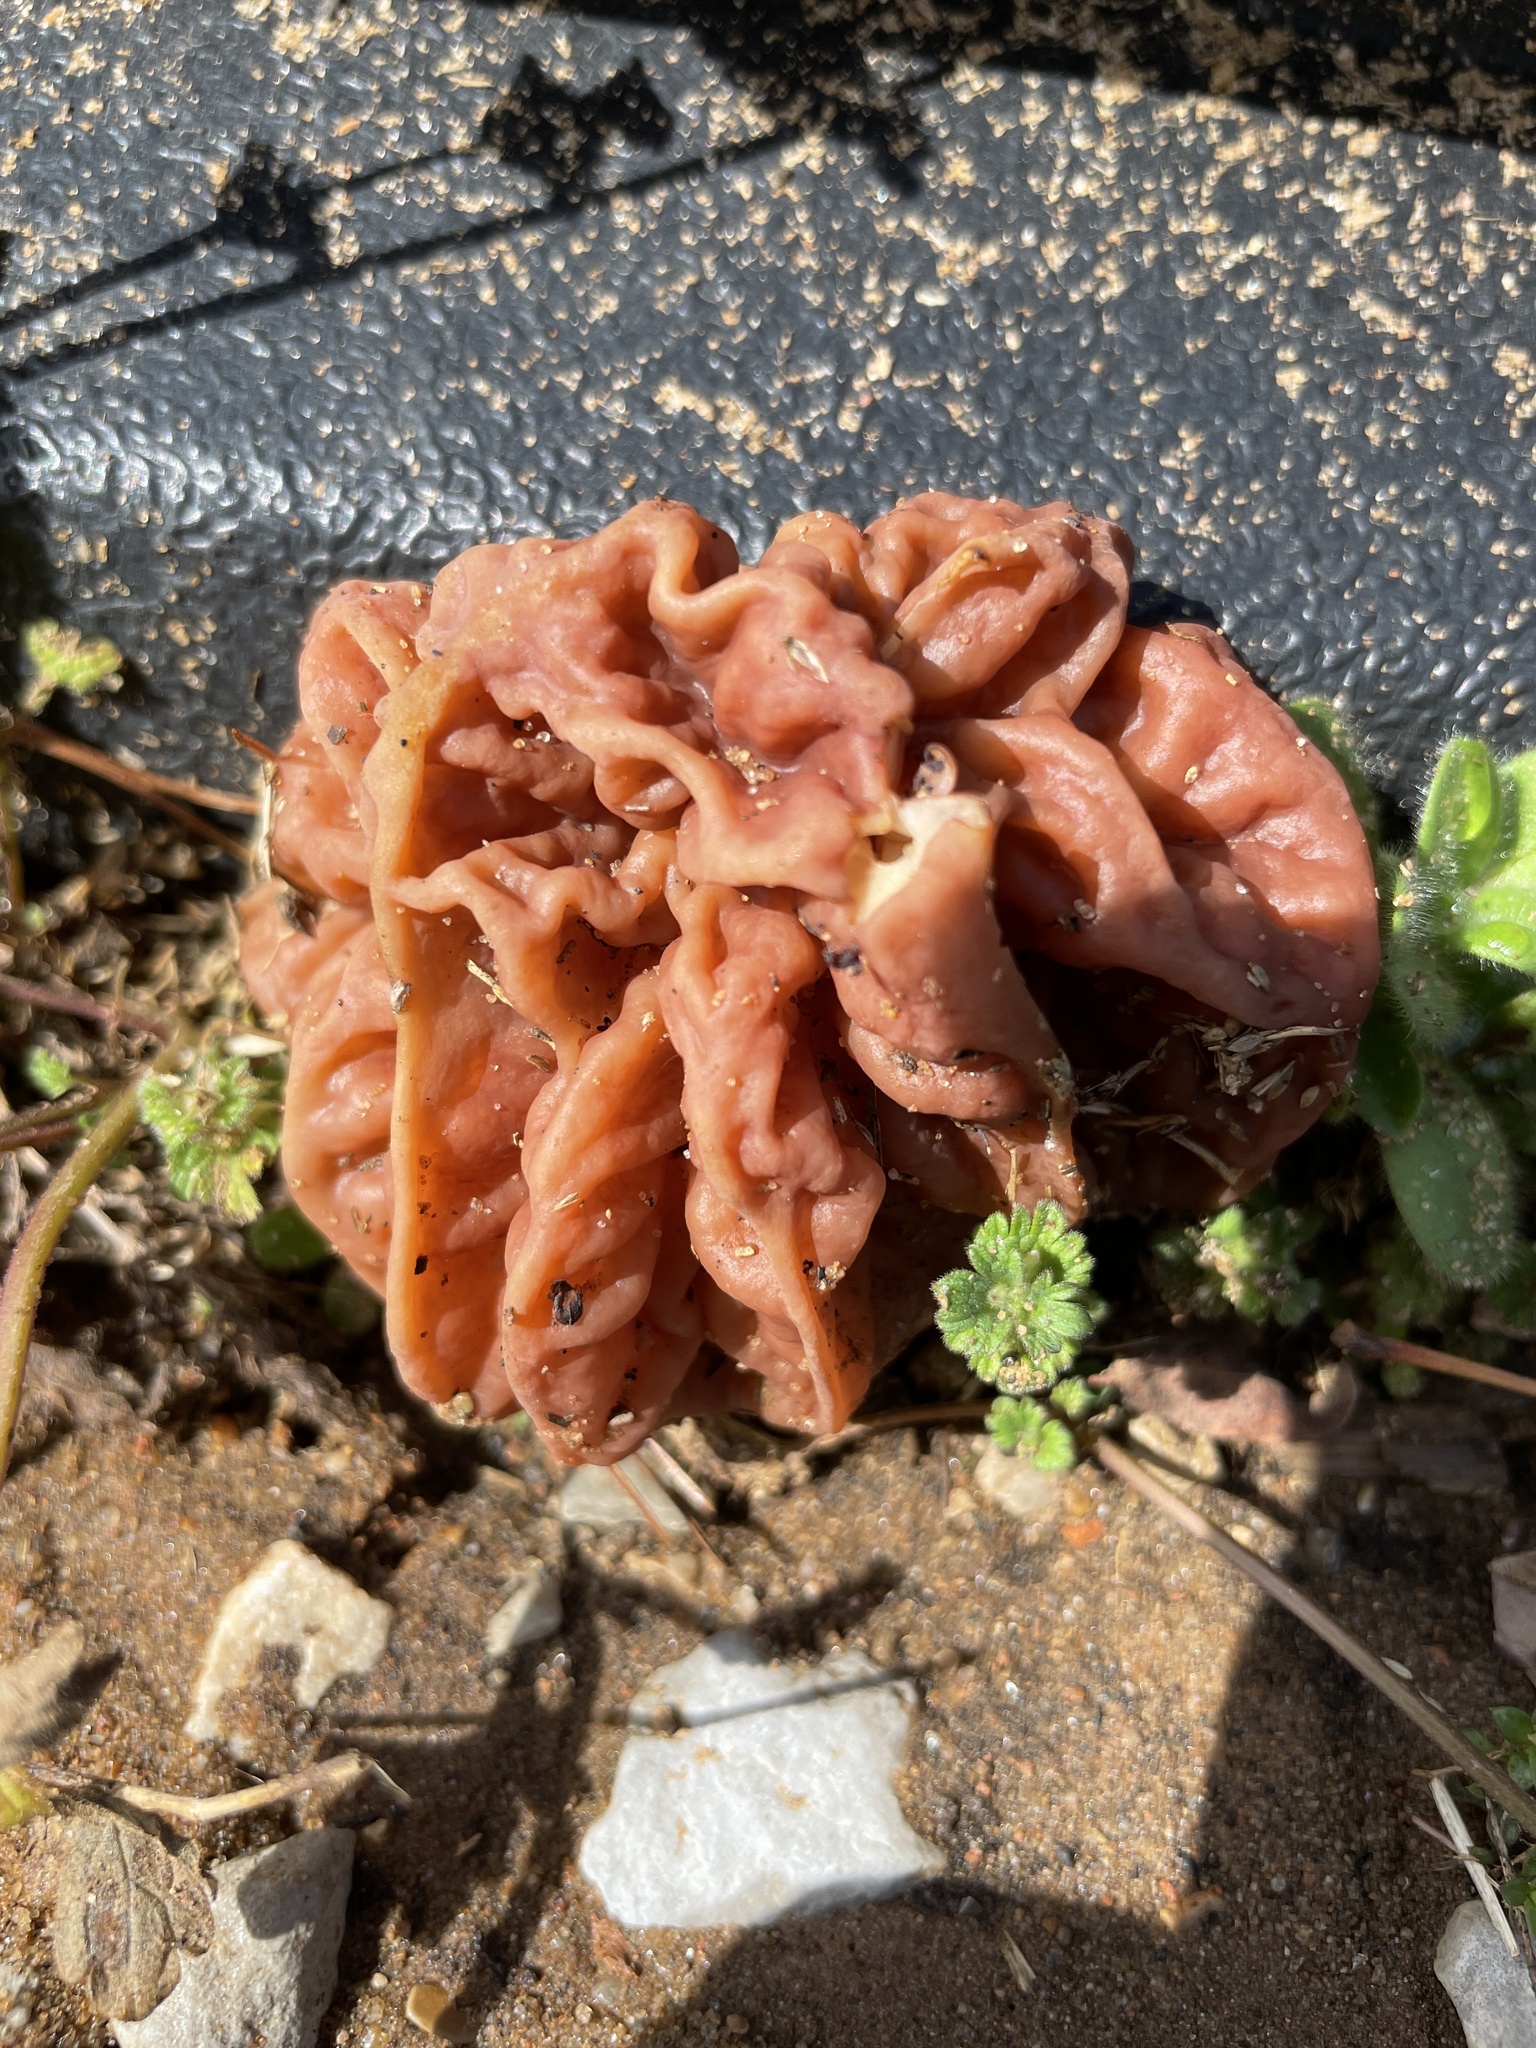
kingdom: Fungi
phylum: Ascomycota
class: Pezizomycetes
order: Pezizales
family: Discinaceae
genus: Discina
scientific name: Discina caroliniana
